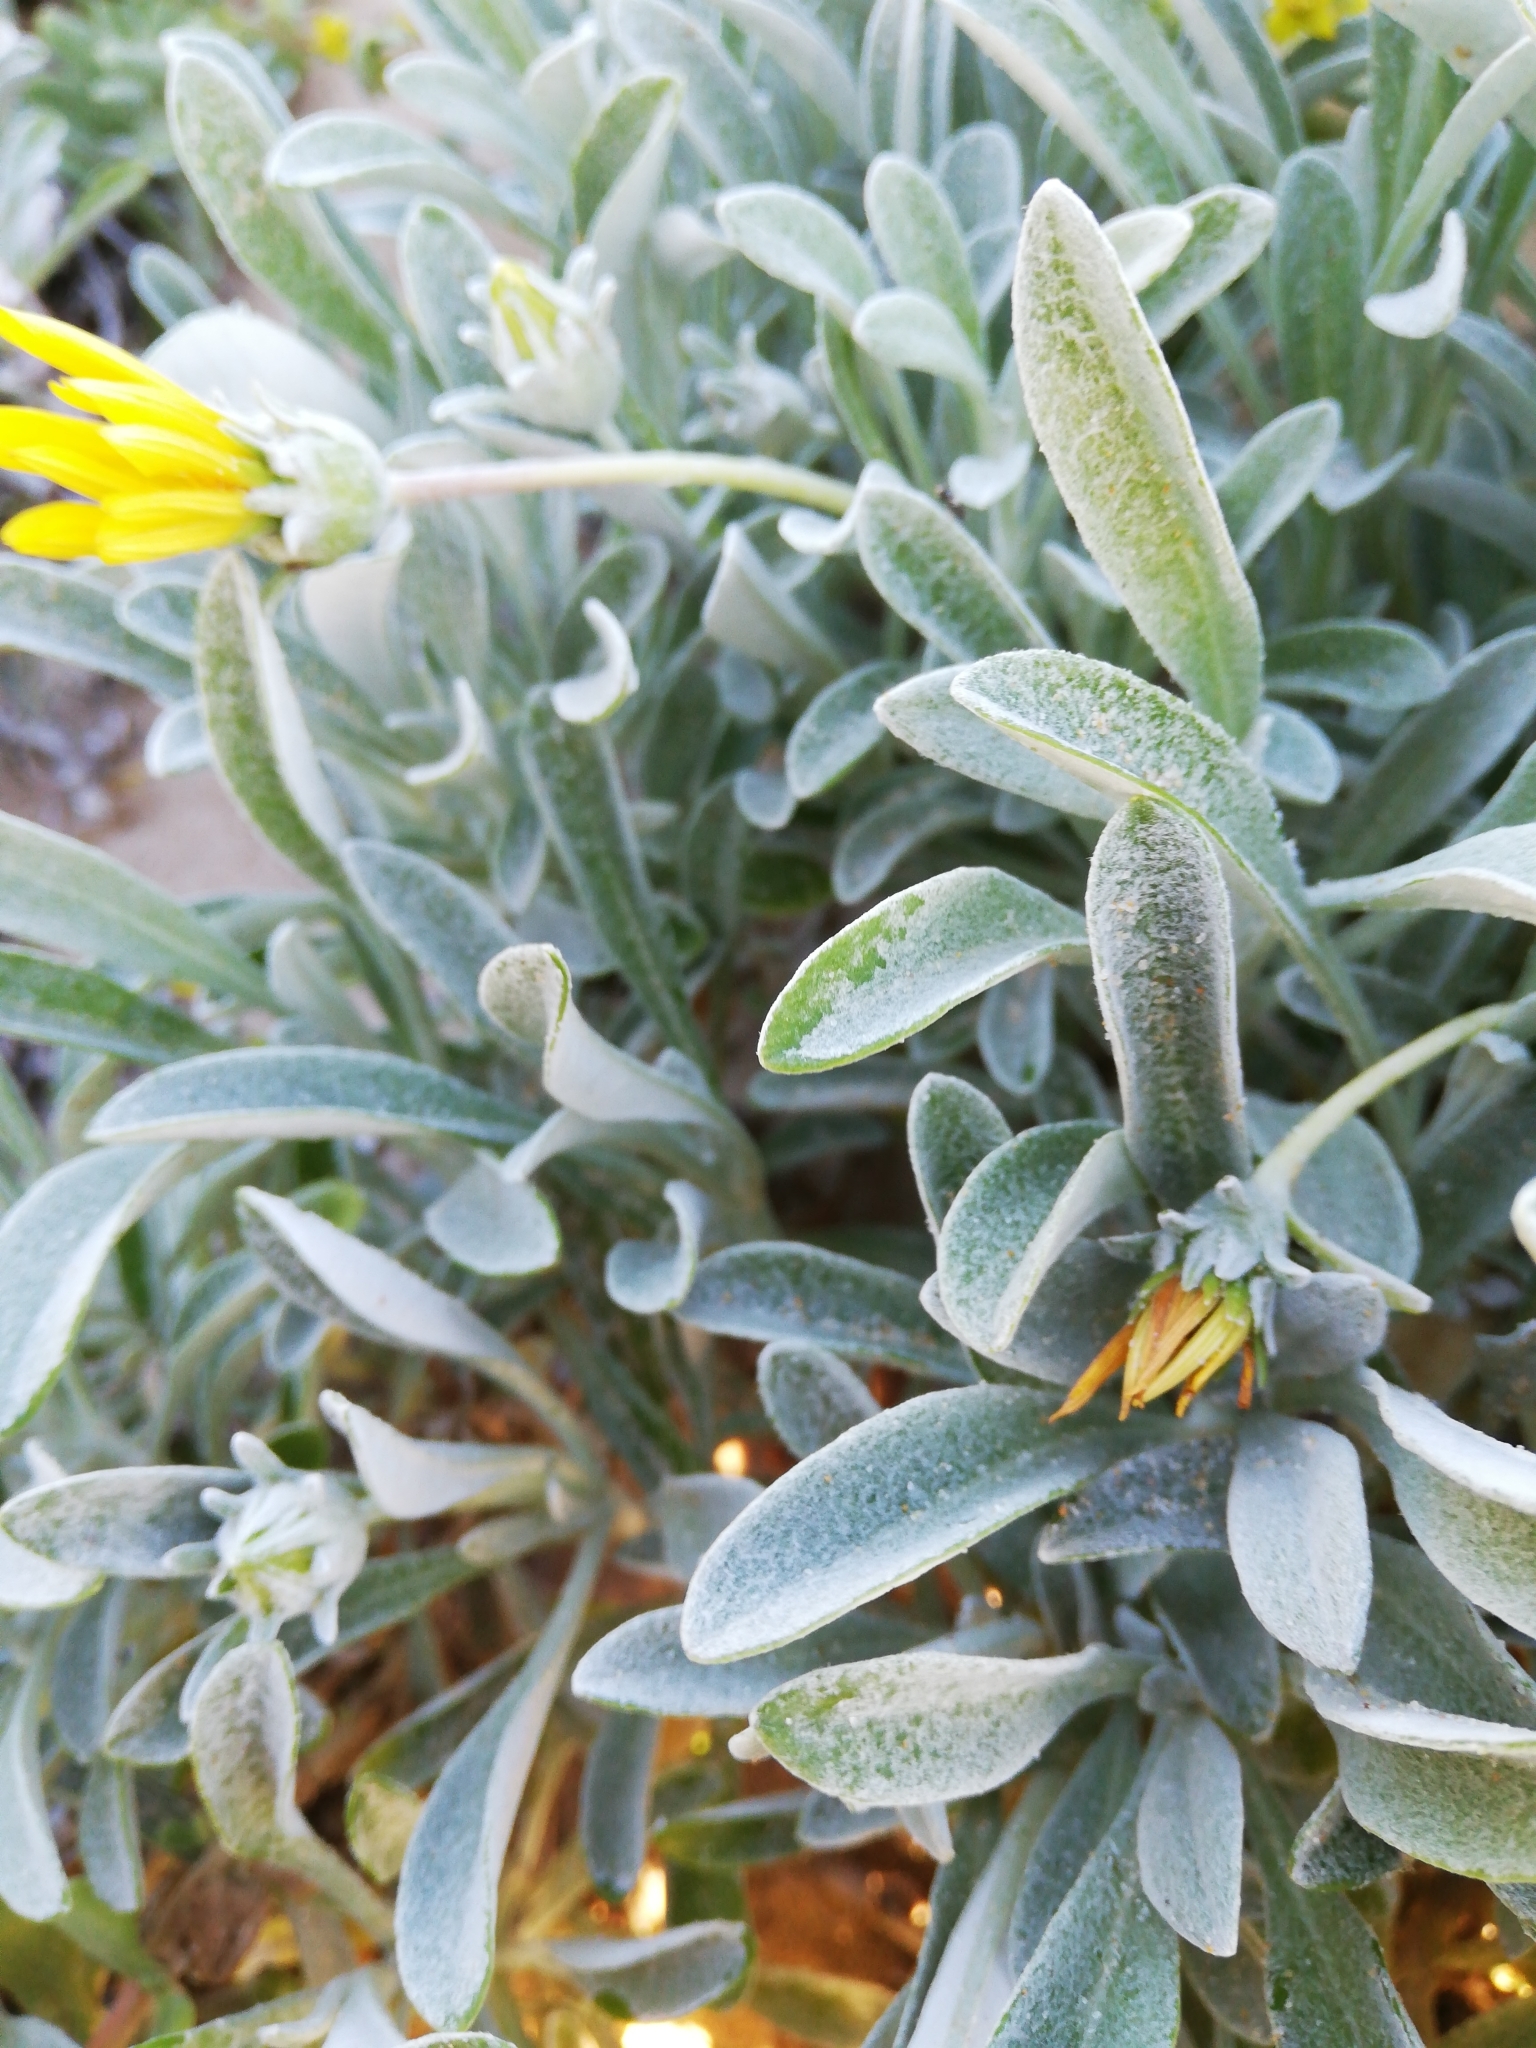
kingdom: Plantae
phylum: Tracheophyta
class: Magnoliopsida
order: Asterales
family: Asteraceae
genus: Gazania
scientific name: Gazania rigens
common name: Treasureflower
